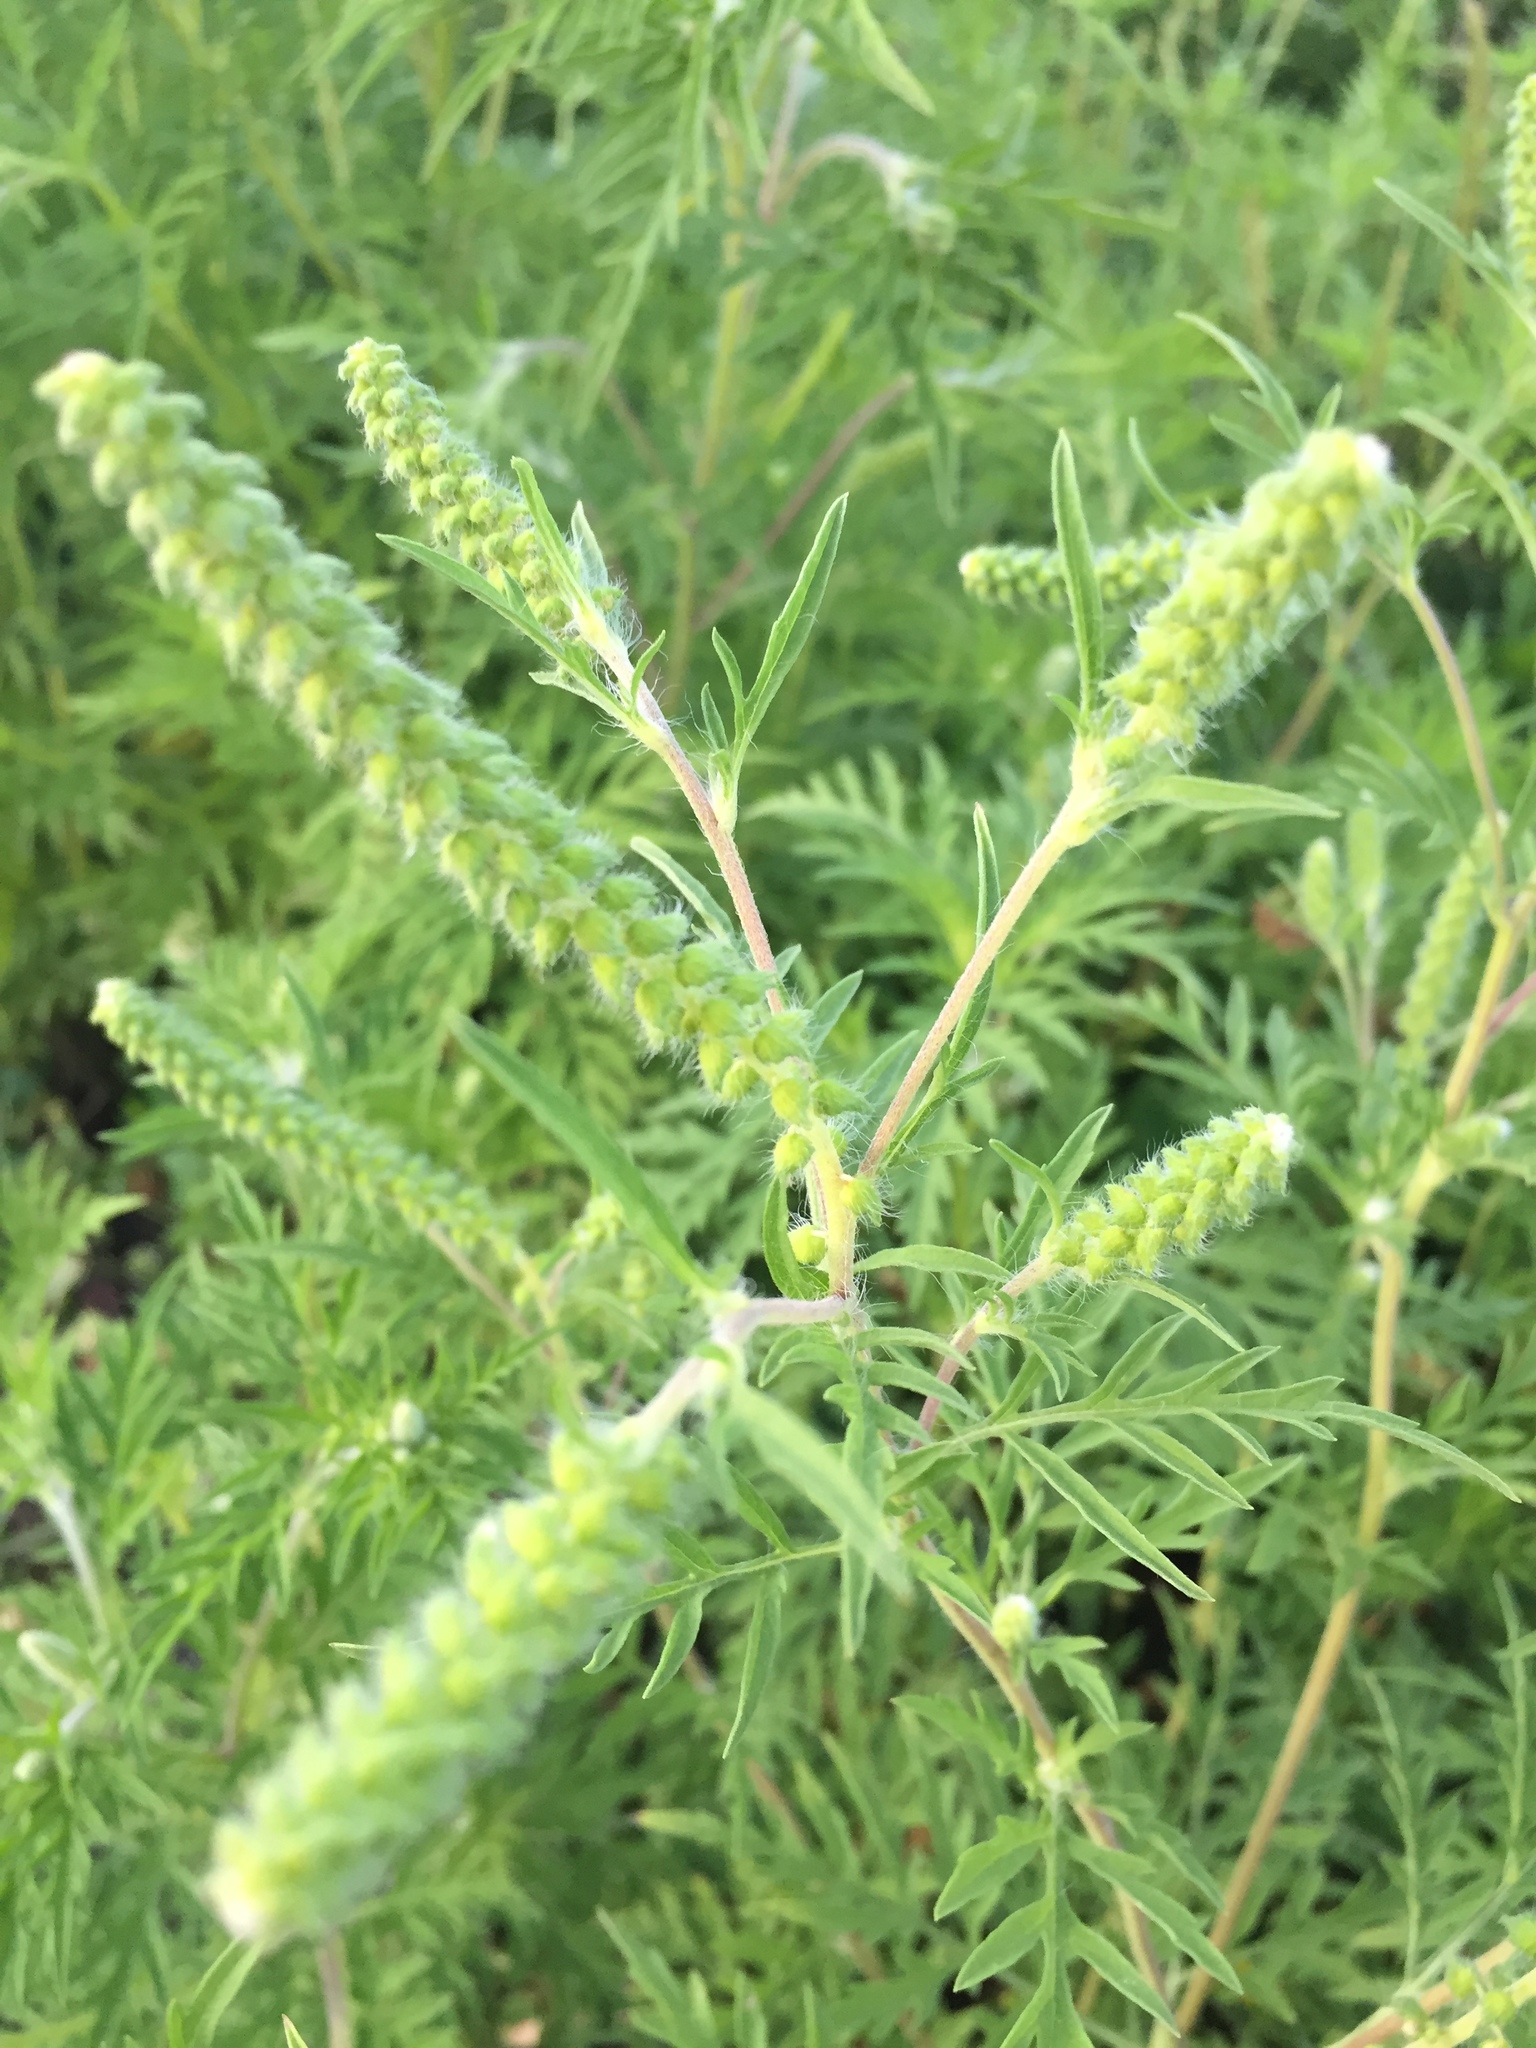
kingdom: Plantae
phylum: Tracheophyta
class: Magnoliopsida
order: Asterales
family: Asteraceae
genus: Ambrosia
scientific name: Ambrosia artemisiifolia
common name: Annual ragweed
